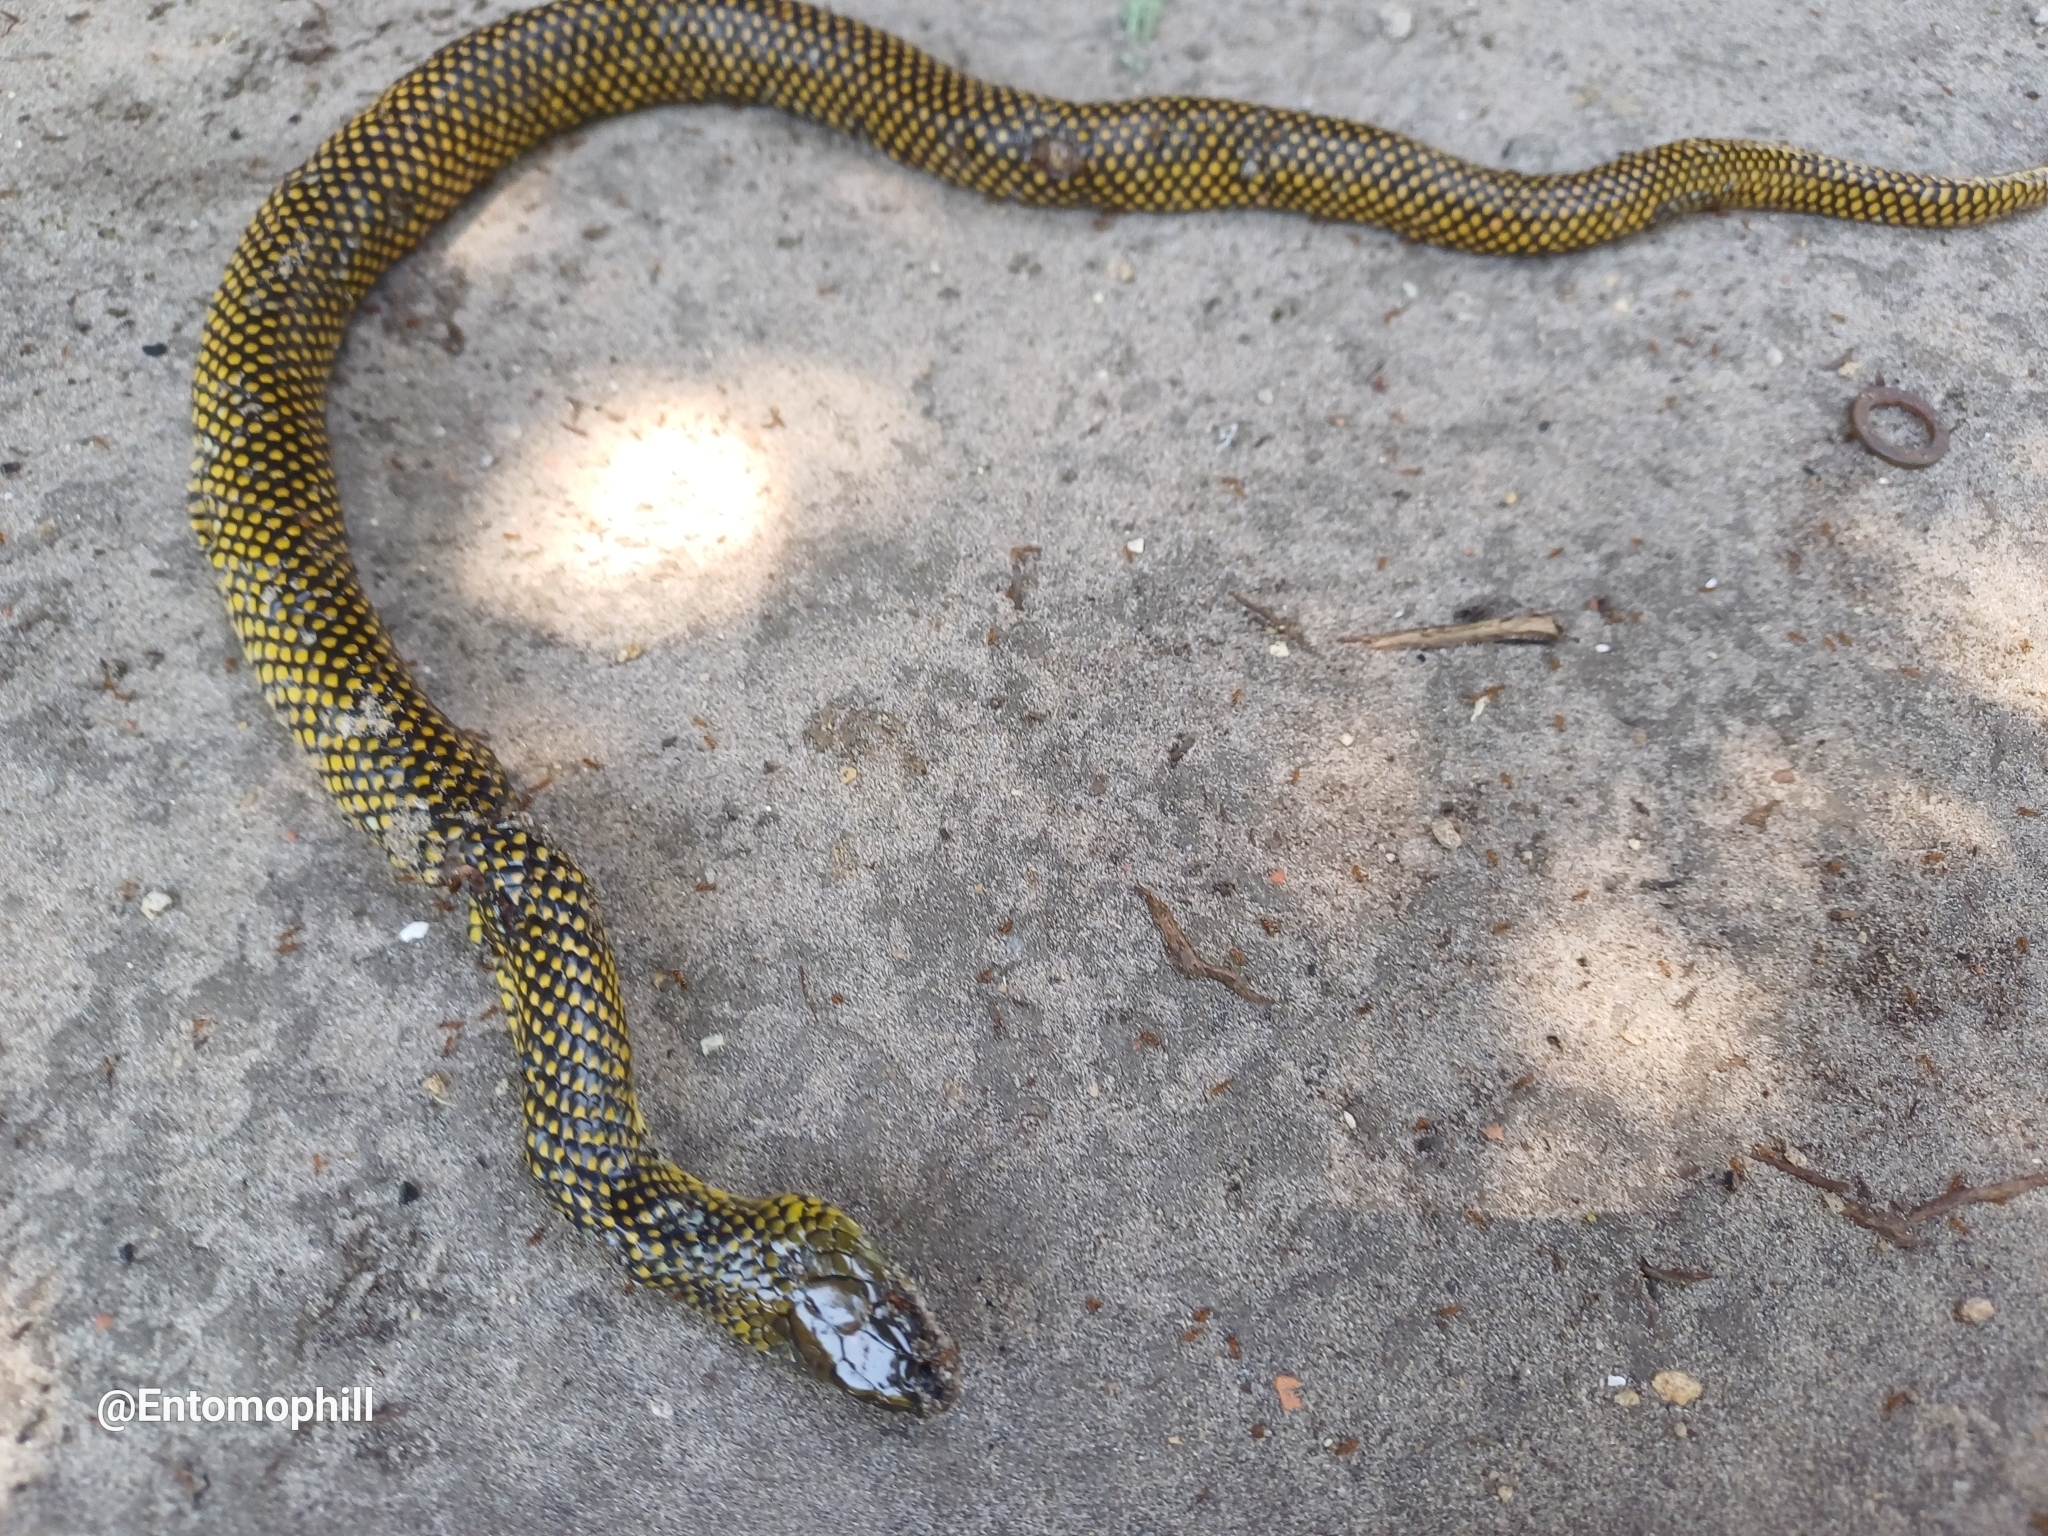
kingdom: Animalia
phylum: Chordata
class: Squamata
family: Colubridae
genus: Erythrolamprus
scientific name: Erythrolamprus miliaris
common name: Military ground snake
